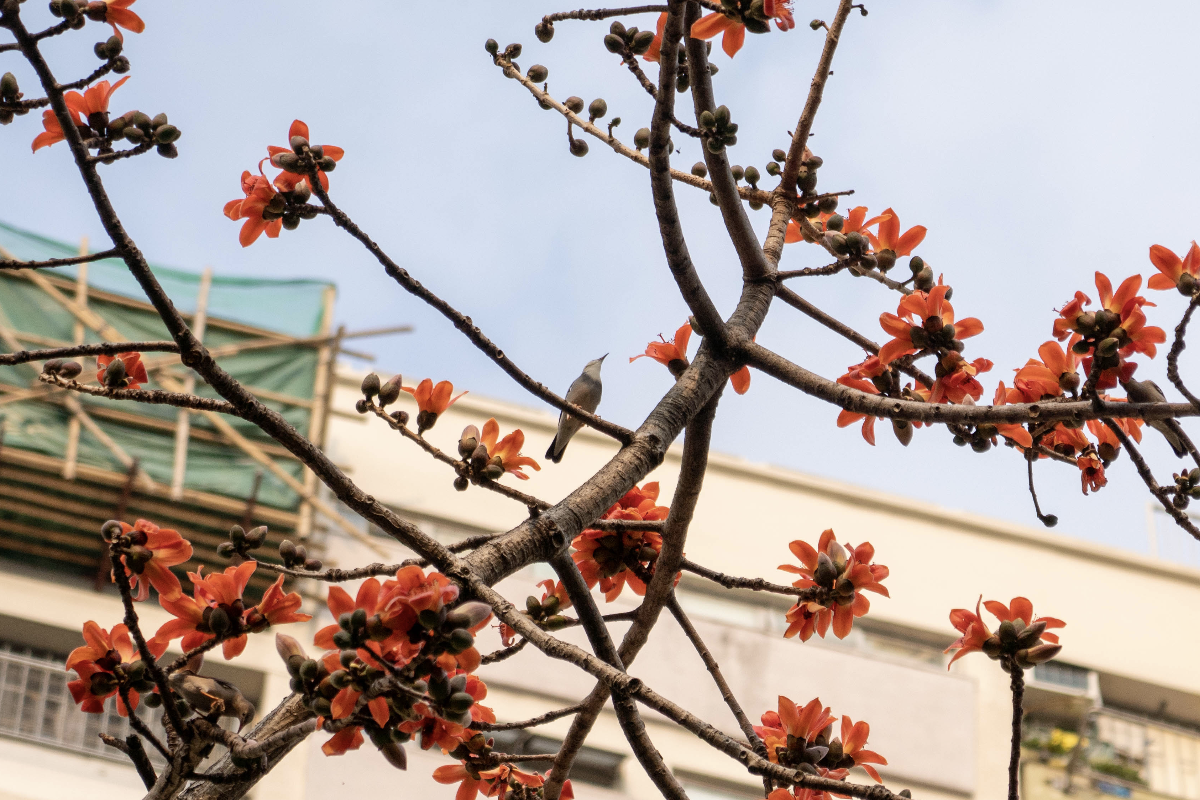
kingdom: Animalia
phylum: Chordata
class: Aves
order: Passeriformes
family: Sturnidae
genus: Spodiopsar
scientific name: Spodiopsar sericeus
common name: Red-billed starling
